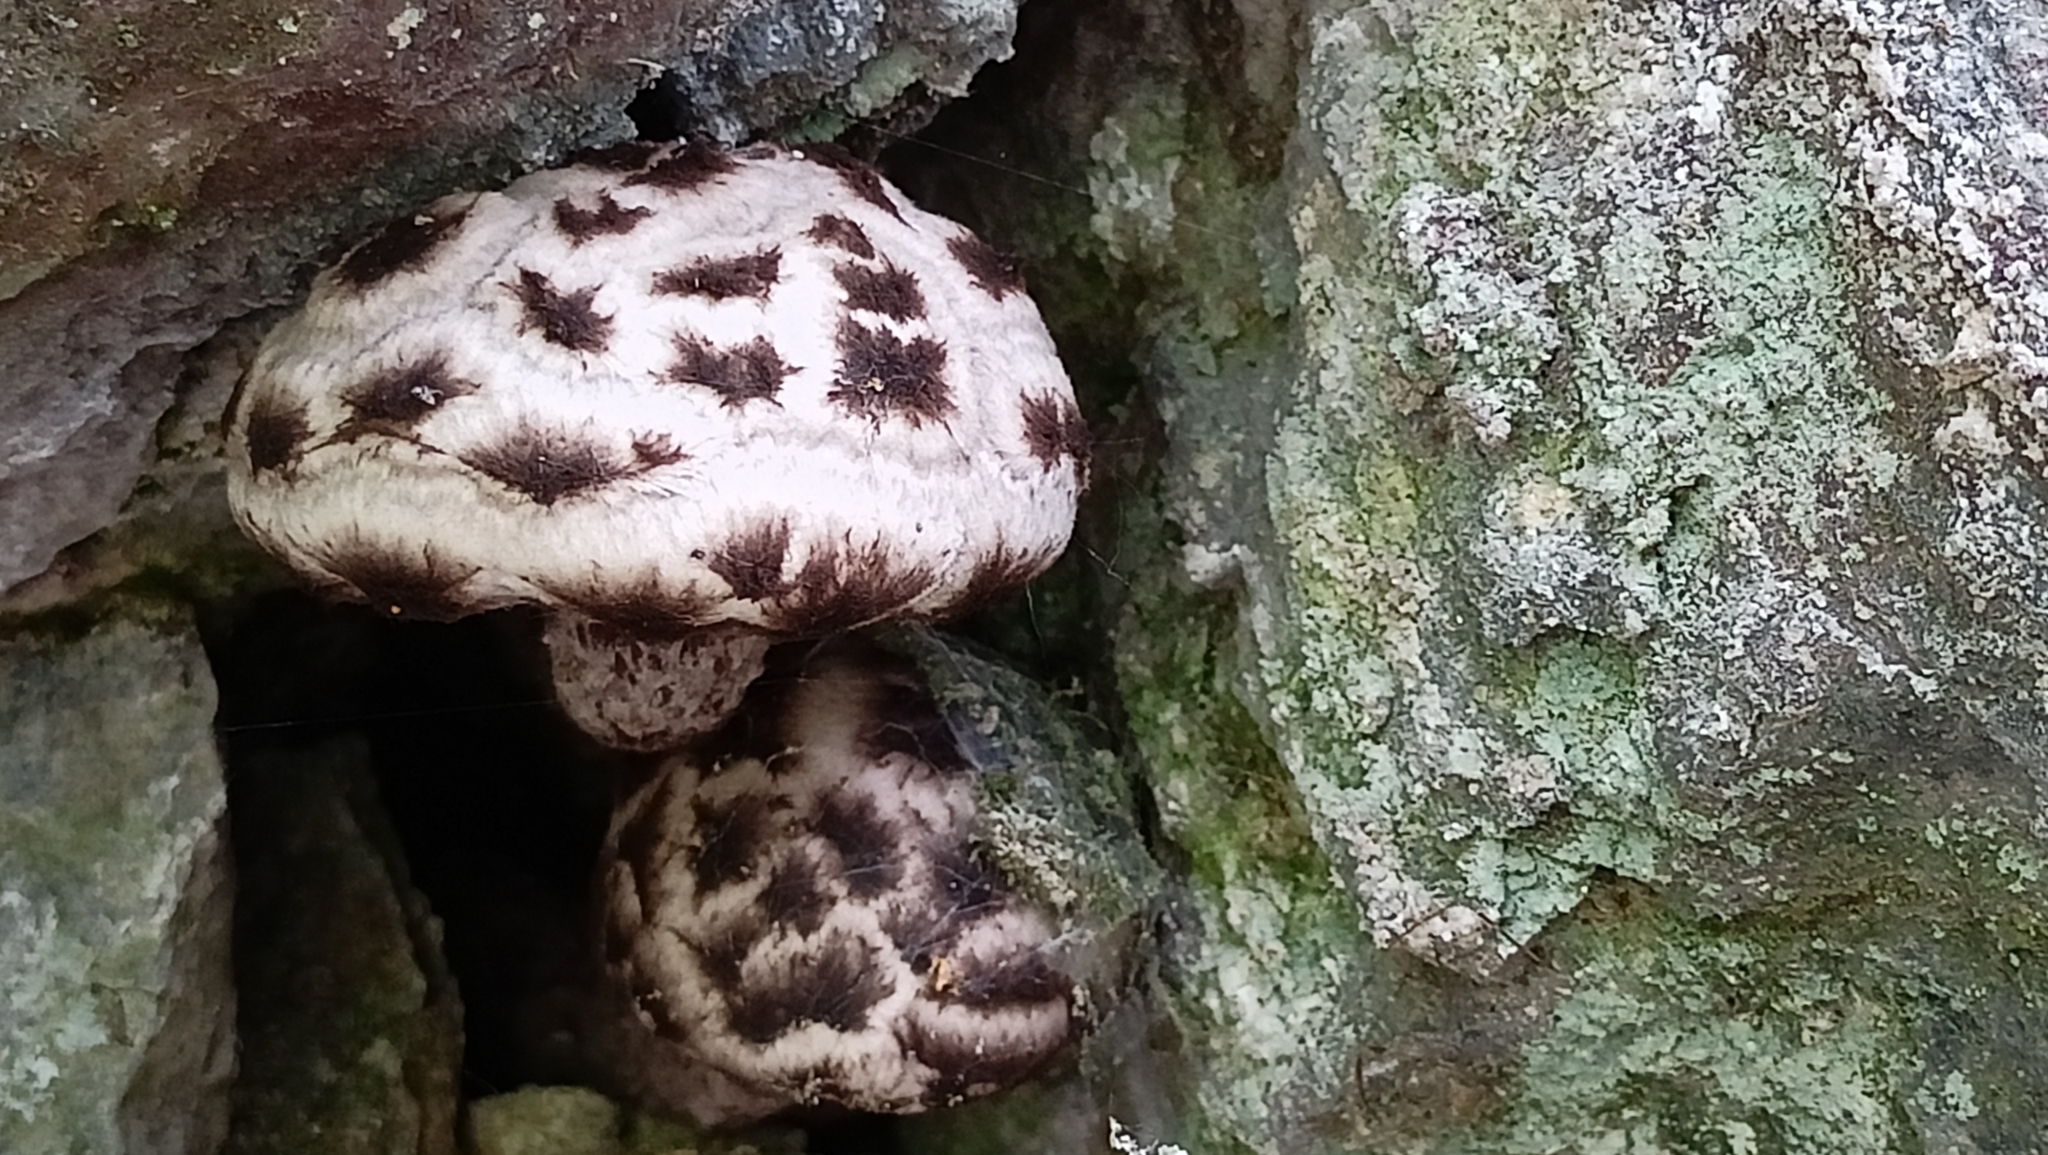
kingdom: Fungi
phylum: Basidiomycota
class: Agaricomycetes
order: Boletales
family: Boletaceae
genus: Strobilomyces
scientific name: Strobilomyces strobilaceus
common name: Old man of the woods
